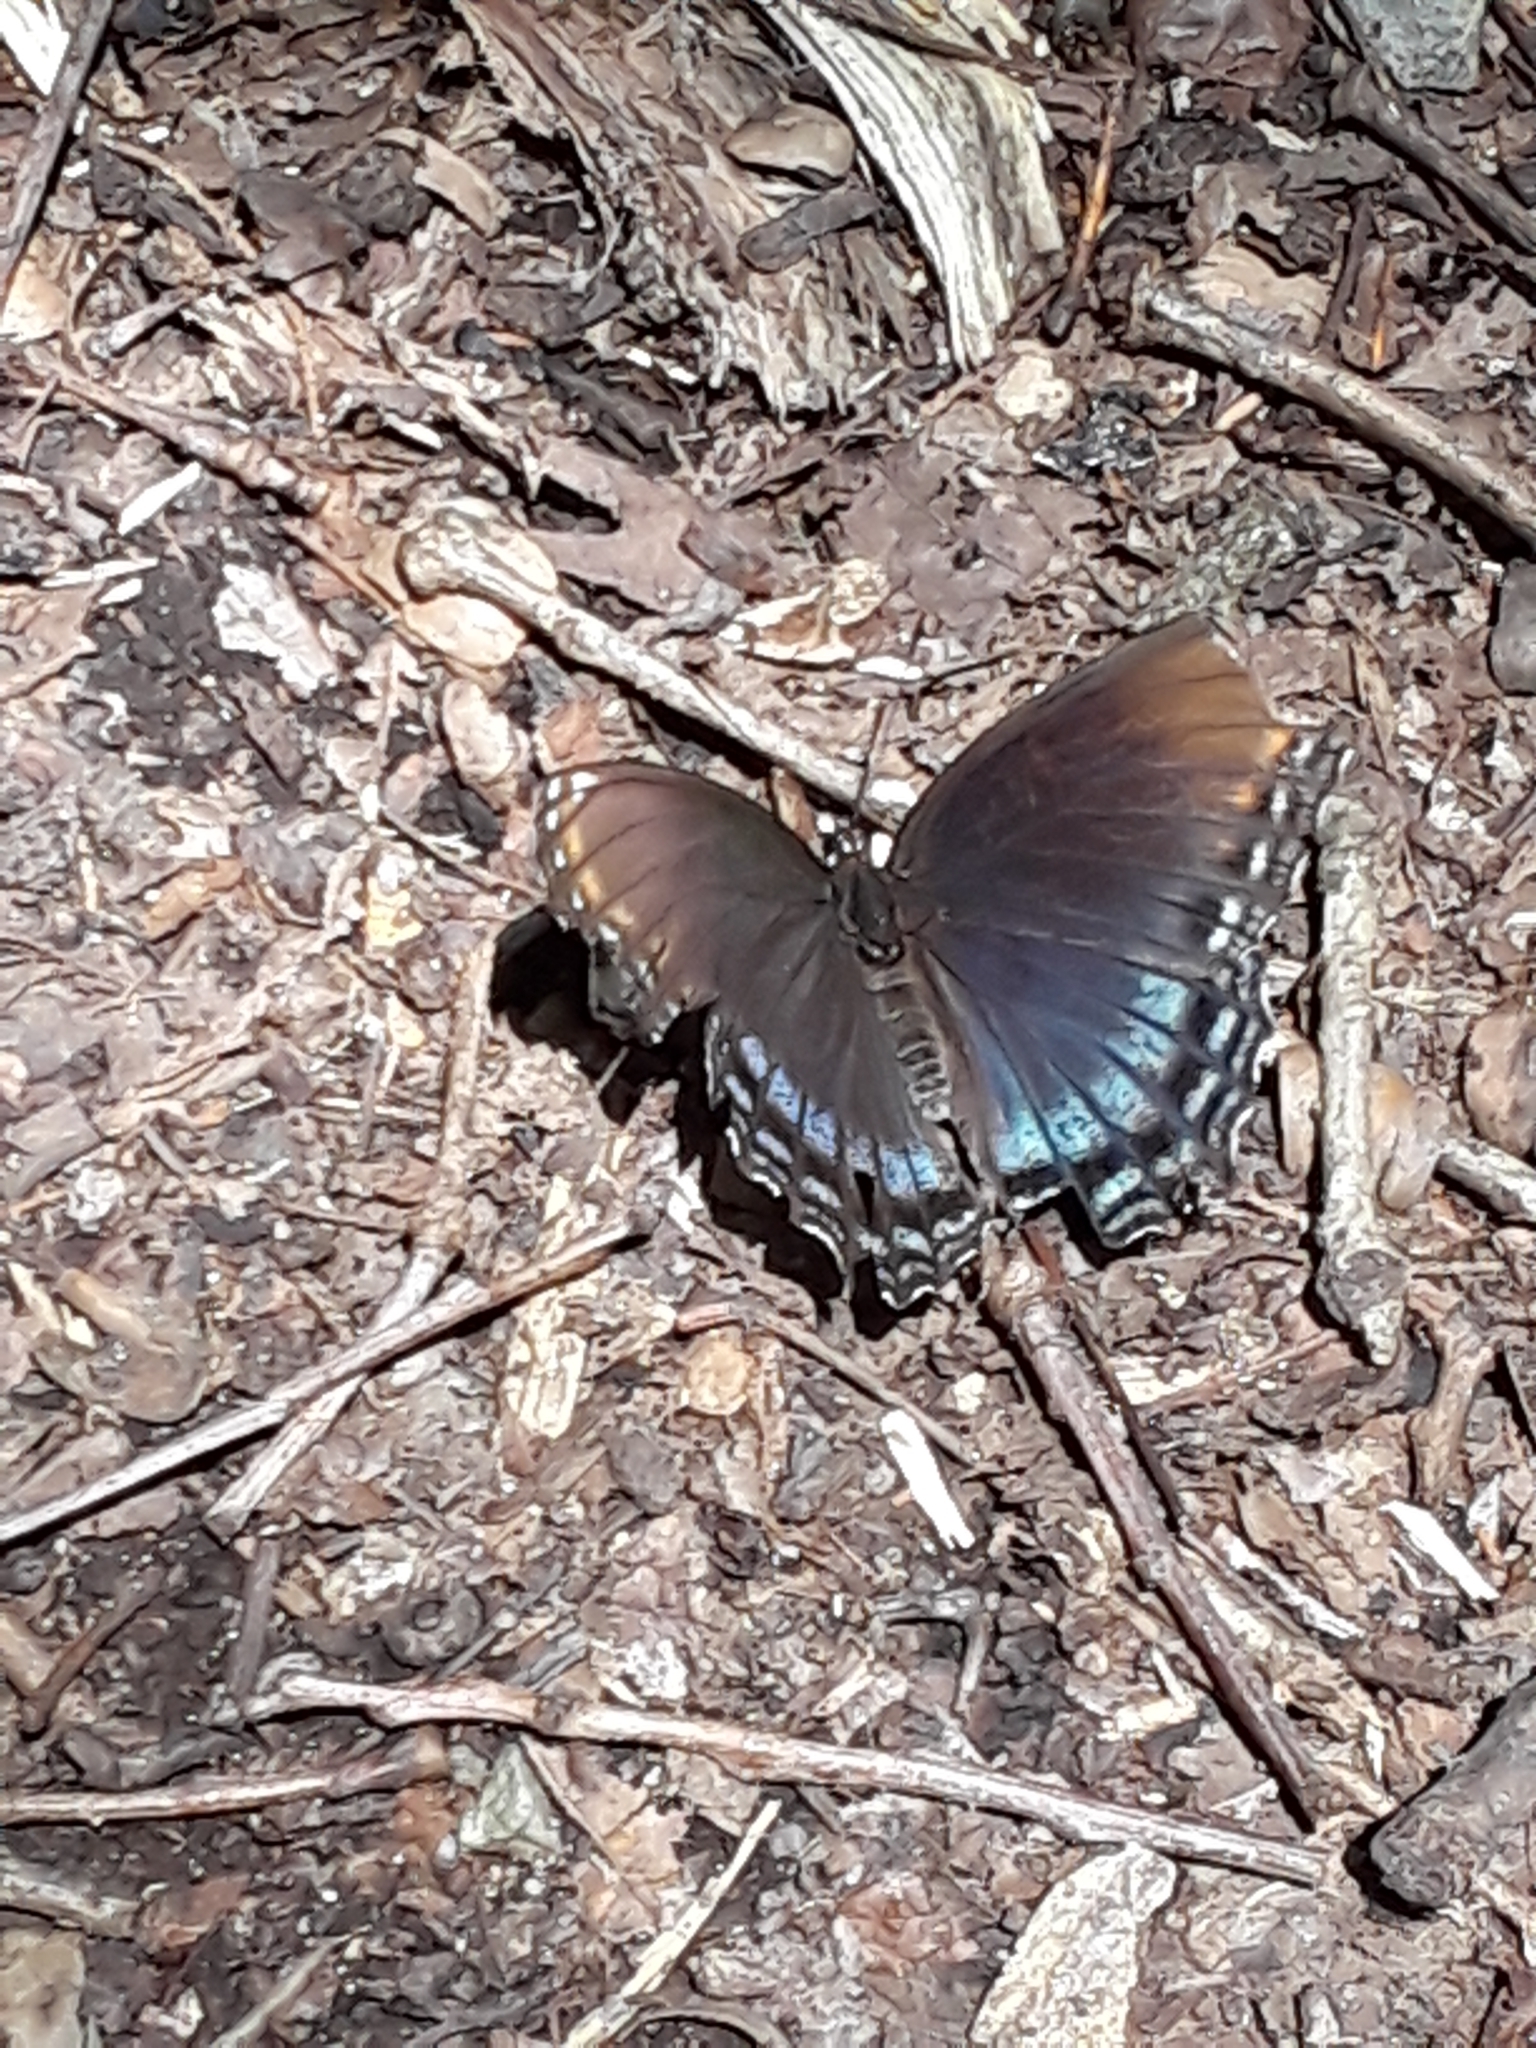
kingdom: Animalia
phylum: Arthropoda
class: Insecta
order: Lepidoptera
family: Nymphalidae
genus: Limenitis
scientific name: Limenitis astyanax
